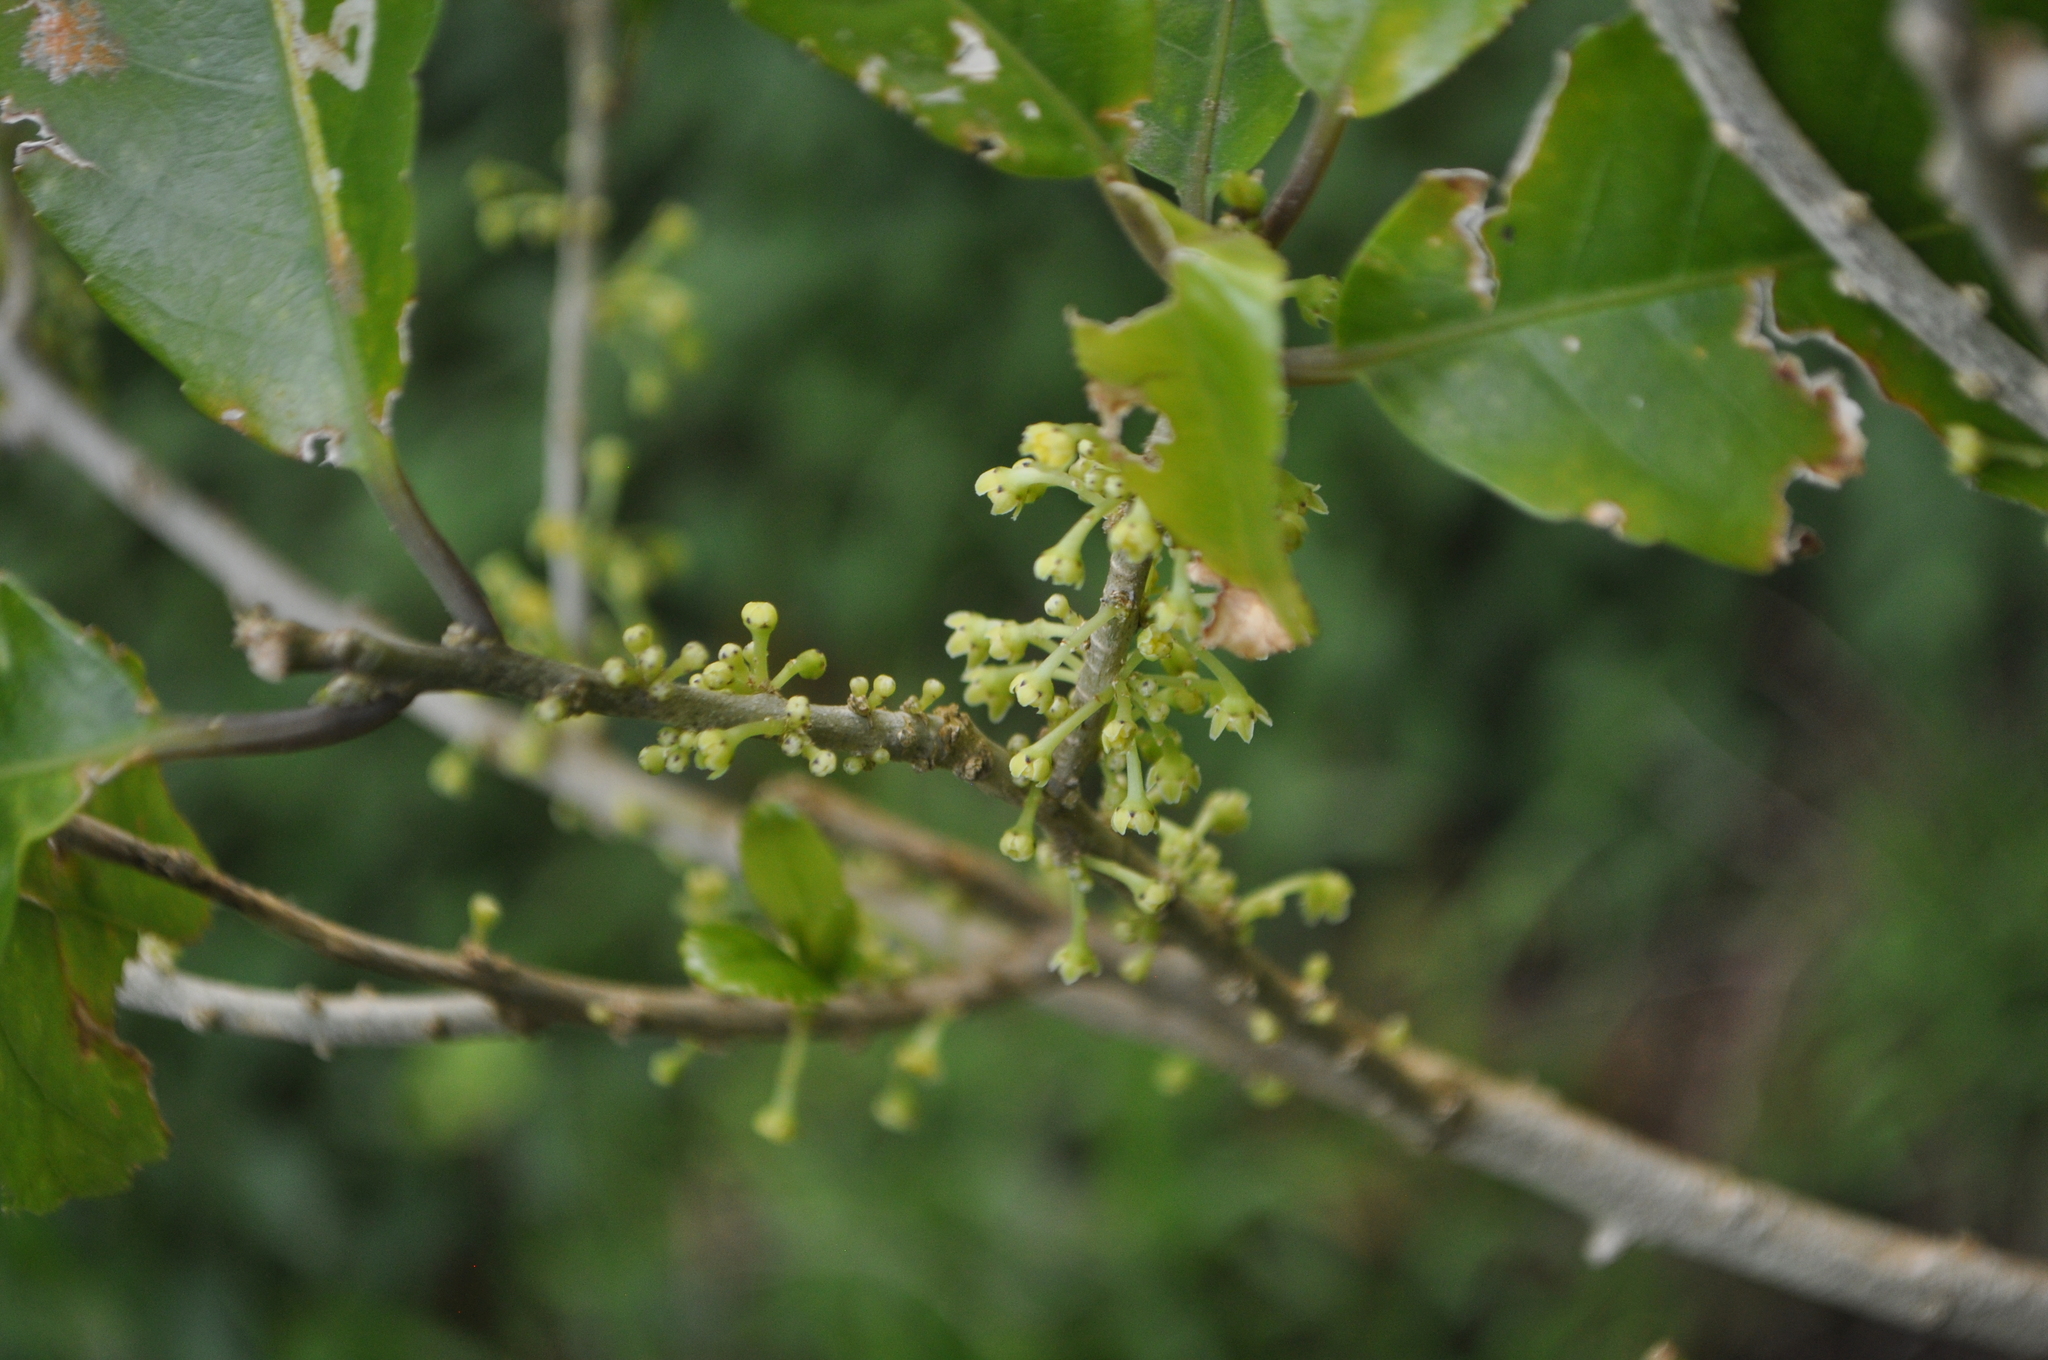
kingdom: Plantae
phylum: Tracheophyta
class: Magnoliopsida
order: Malpighiales
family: Violaceae
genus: Melicytus
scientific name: Melicytus ramiflorus
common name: Mahoe
